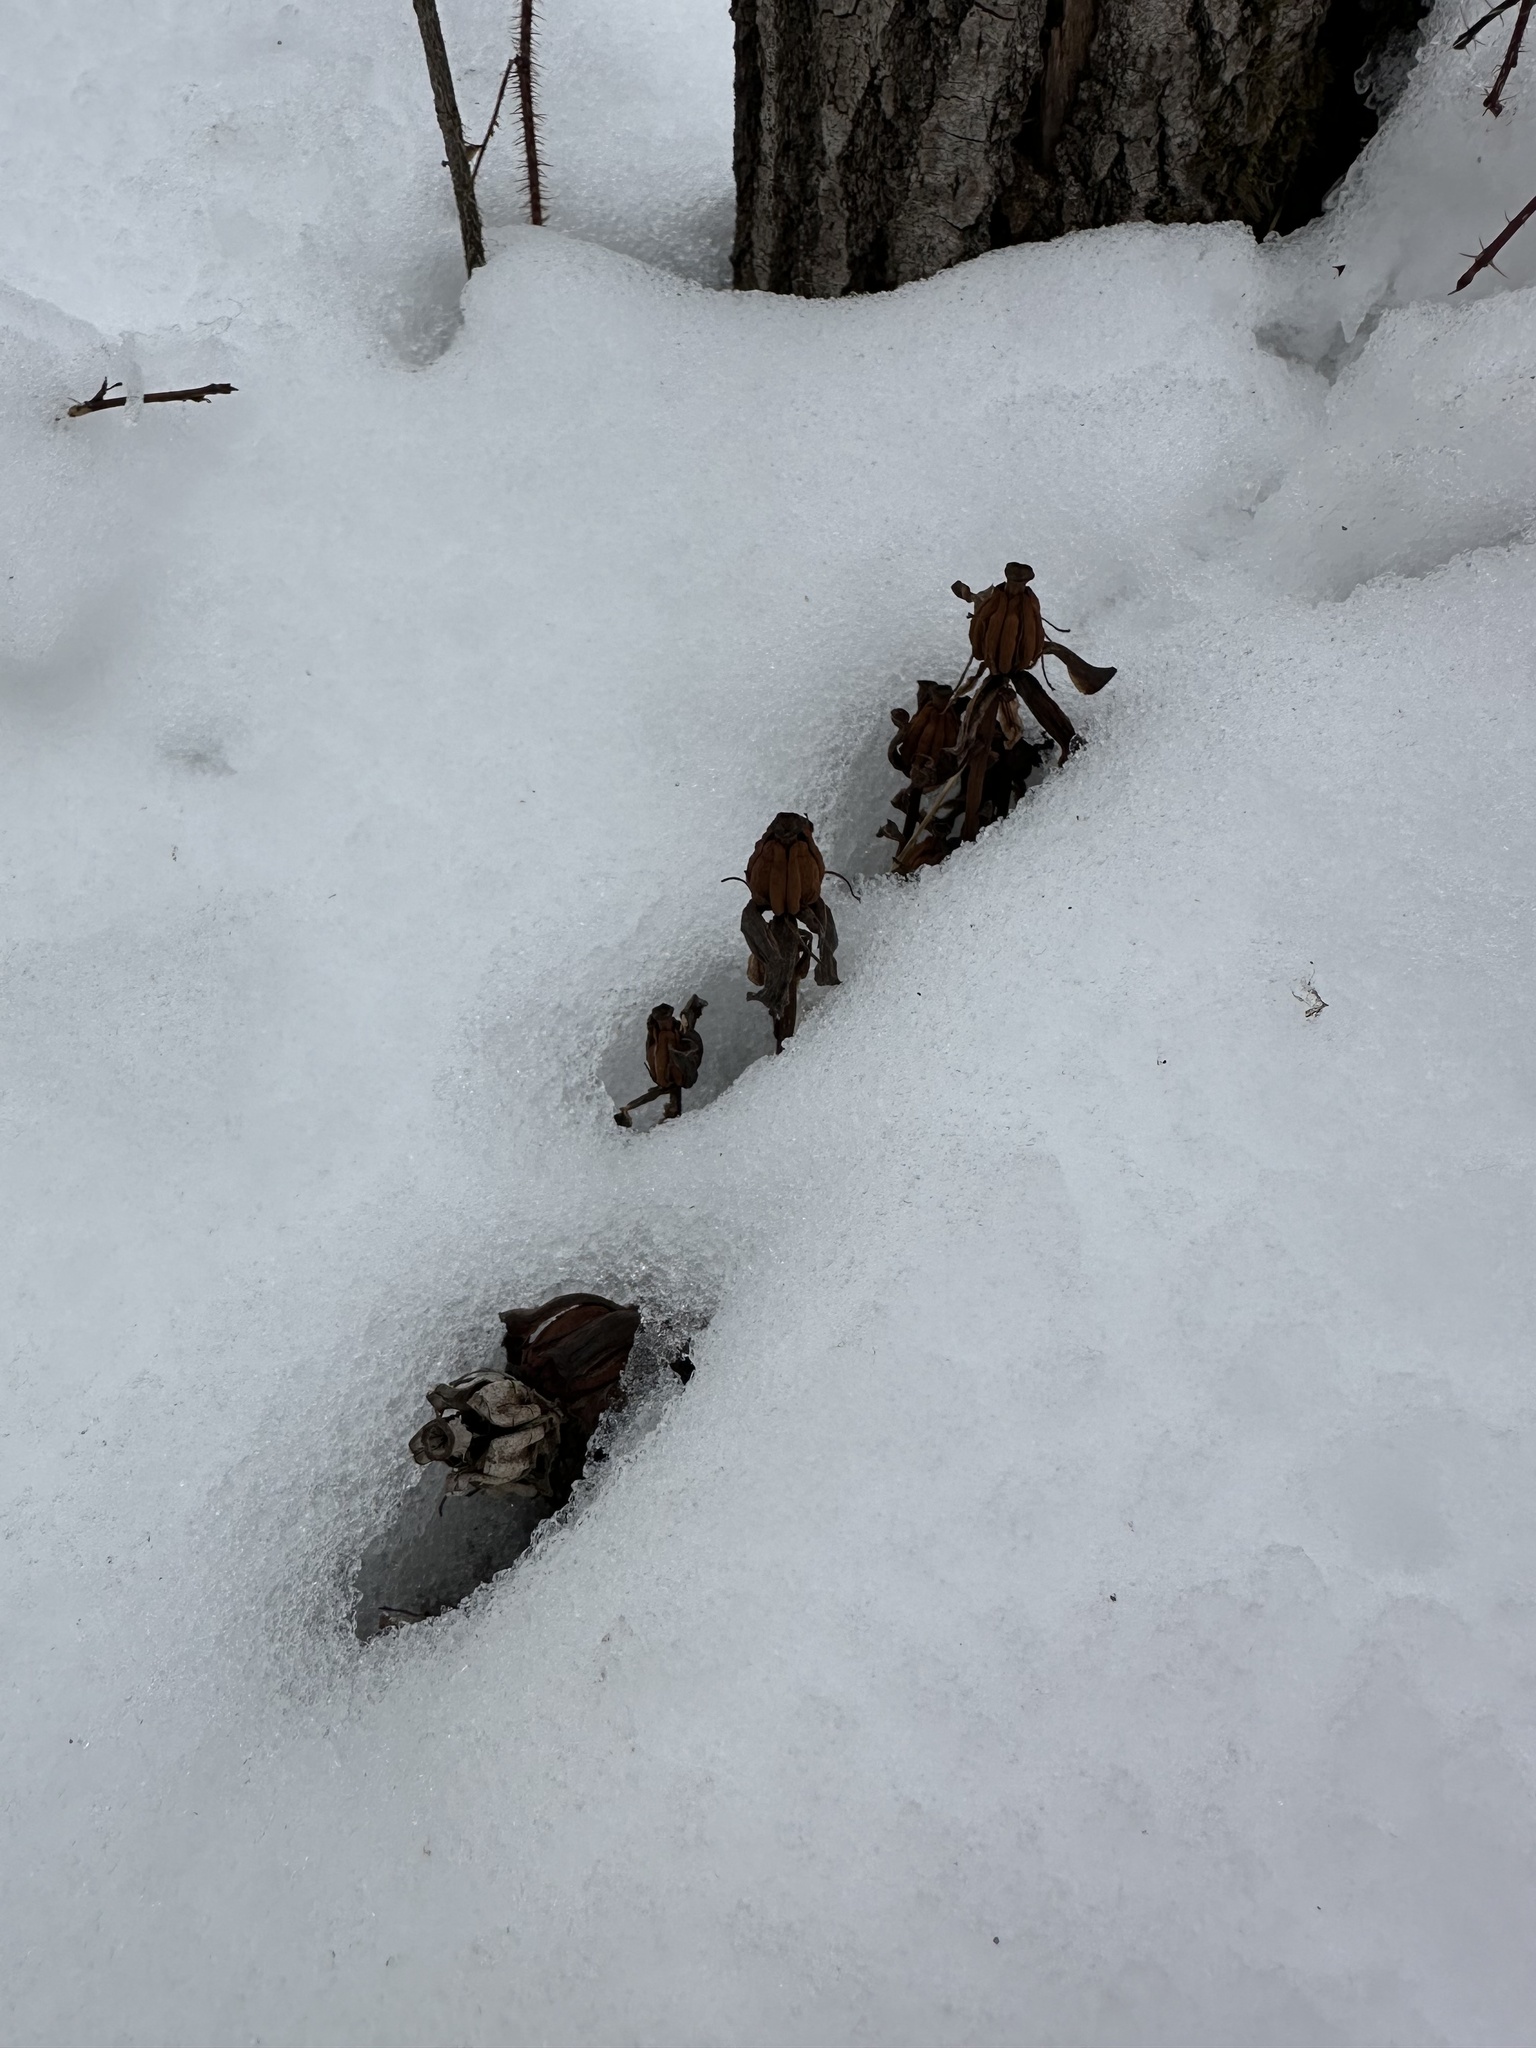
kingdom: Plantae
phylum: Tracheophyta
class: Magnoliopsida
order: Ericales
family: Ericaceae
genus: Monotropa
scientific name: Monotropa uniflora
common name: Convulsion root
